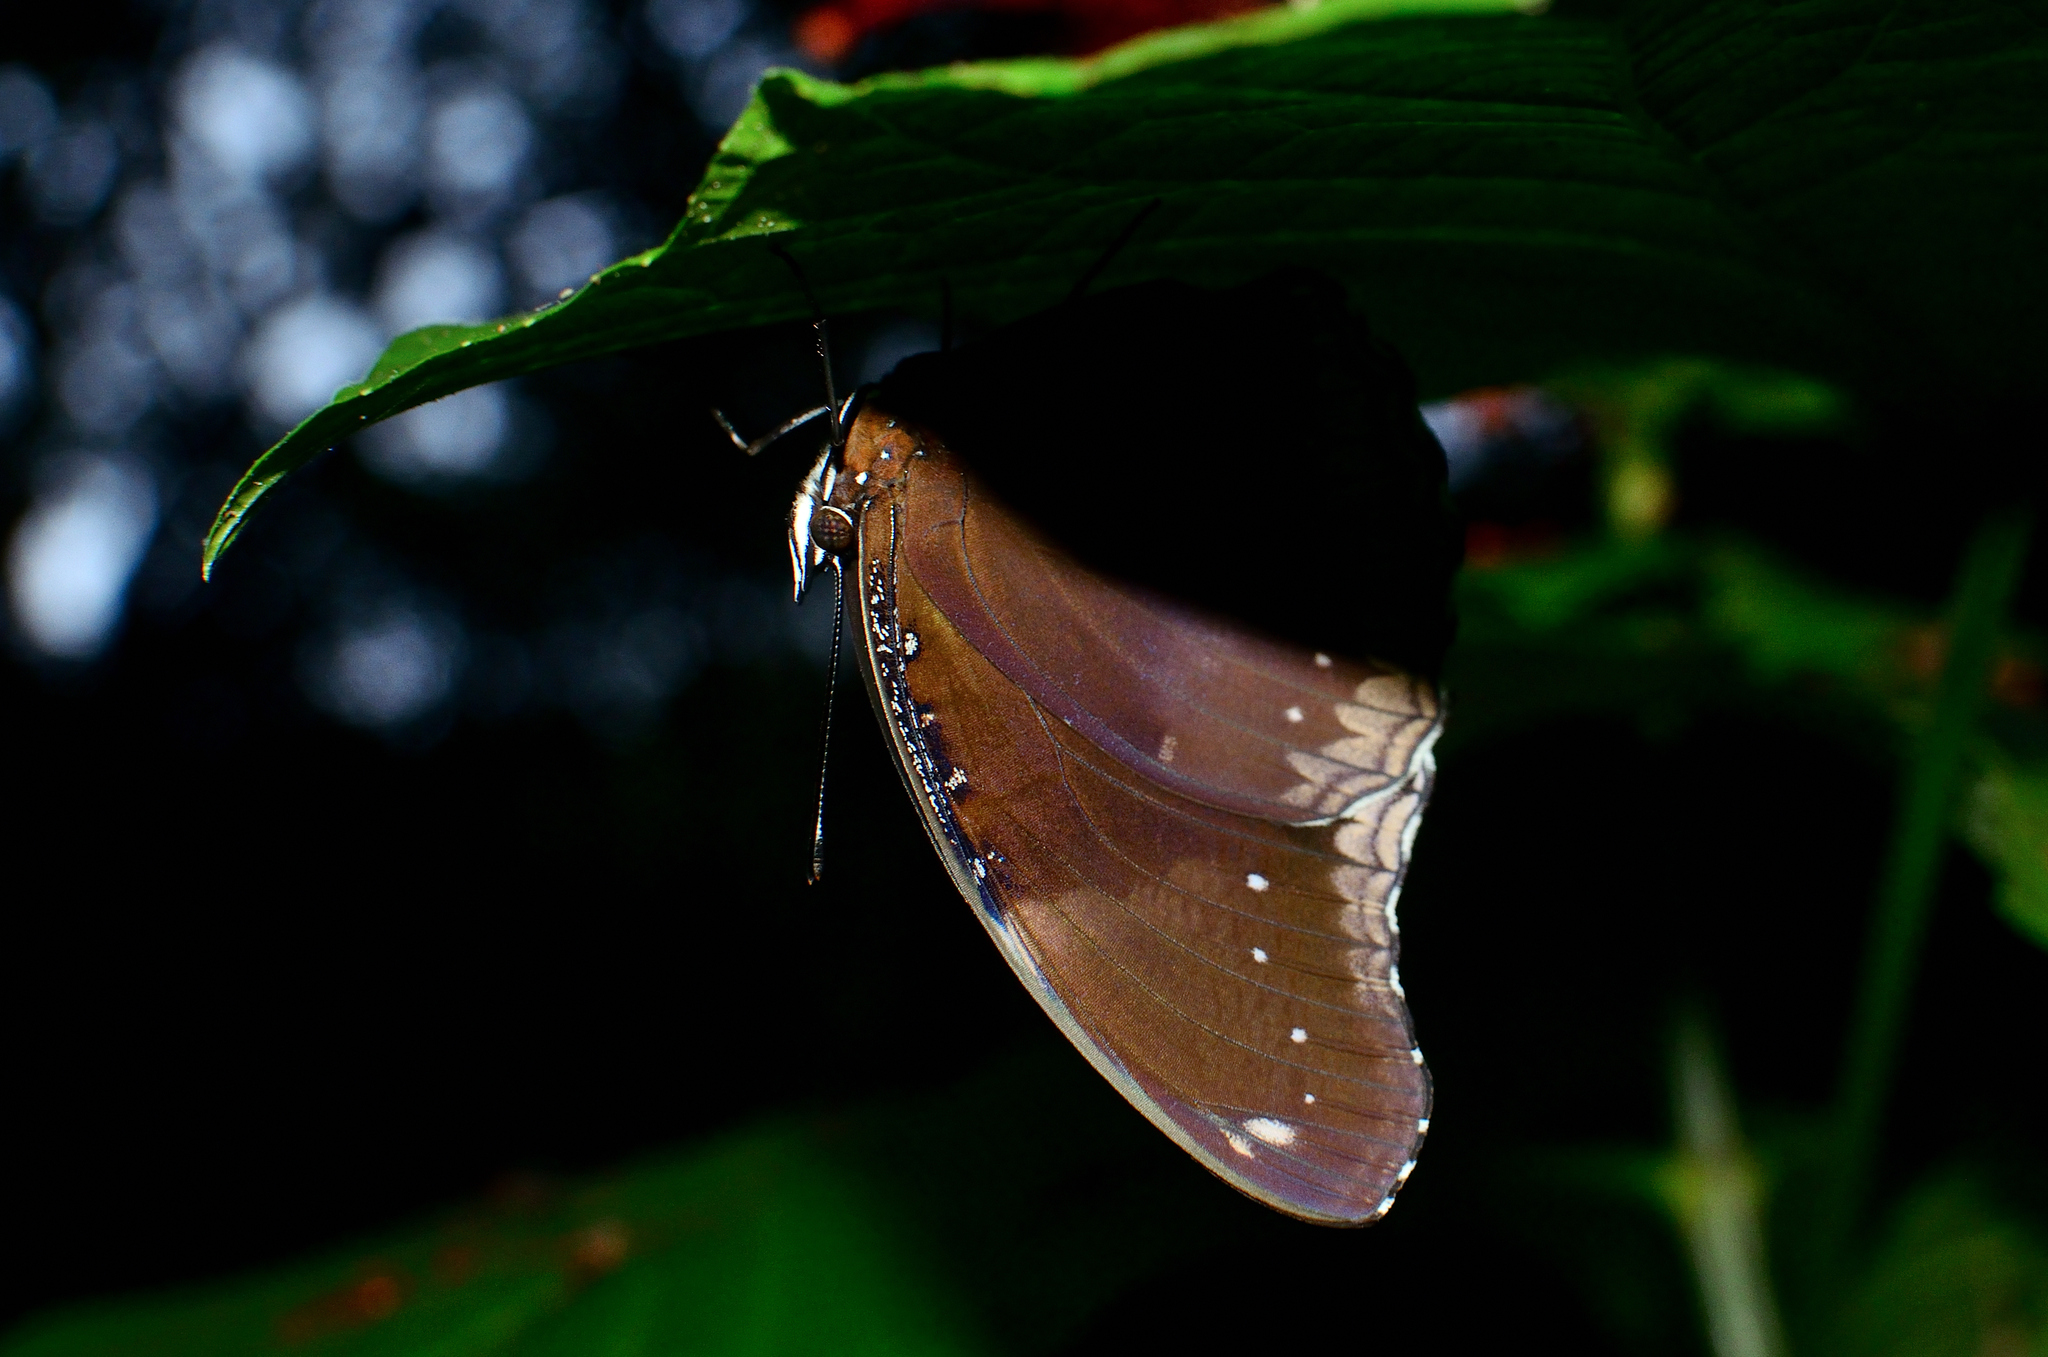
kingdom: Animalia
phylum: Arthropoda
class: Insecta
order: Lepidoptera
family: Nymphalidae
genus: Hypolimnas
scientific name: Hypolimnas bolina
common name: Great eggfly
